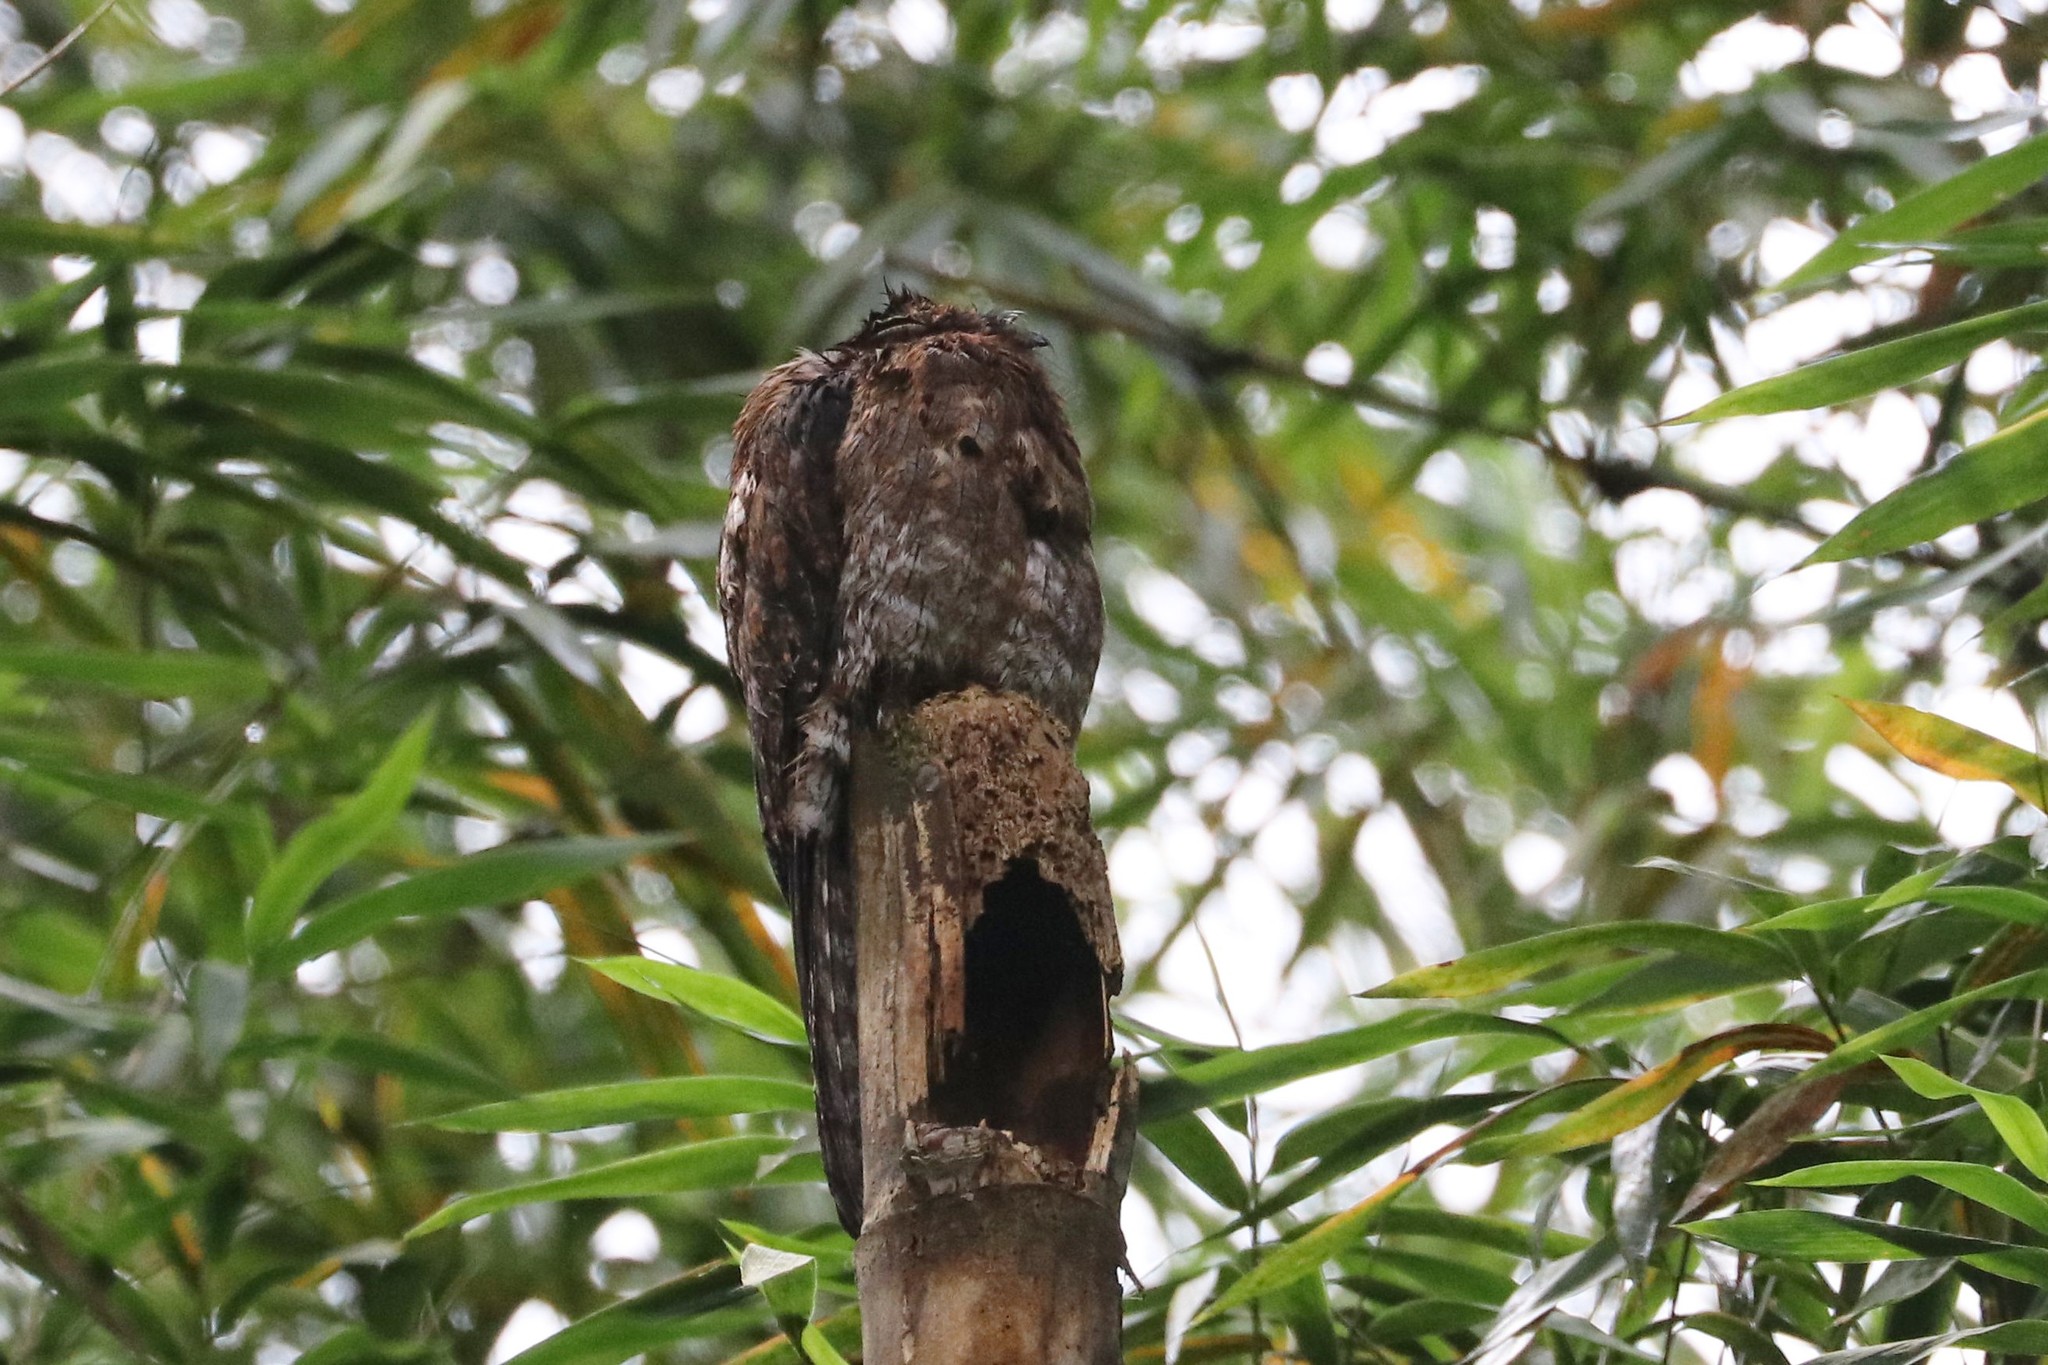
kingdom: Animalia
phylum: Chordata
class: Aves
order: Nyctibiiformes
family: Nyctibiidae
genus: Nyctibius
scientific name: Nyctibius griseus
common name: Common potoo
